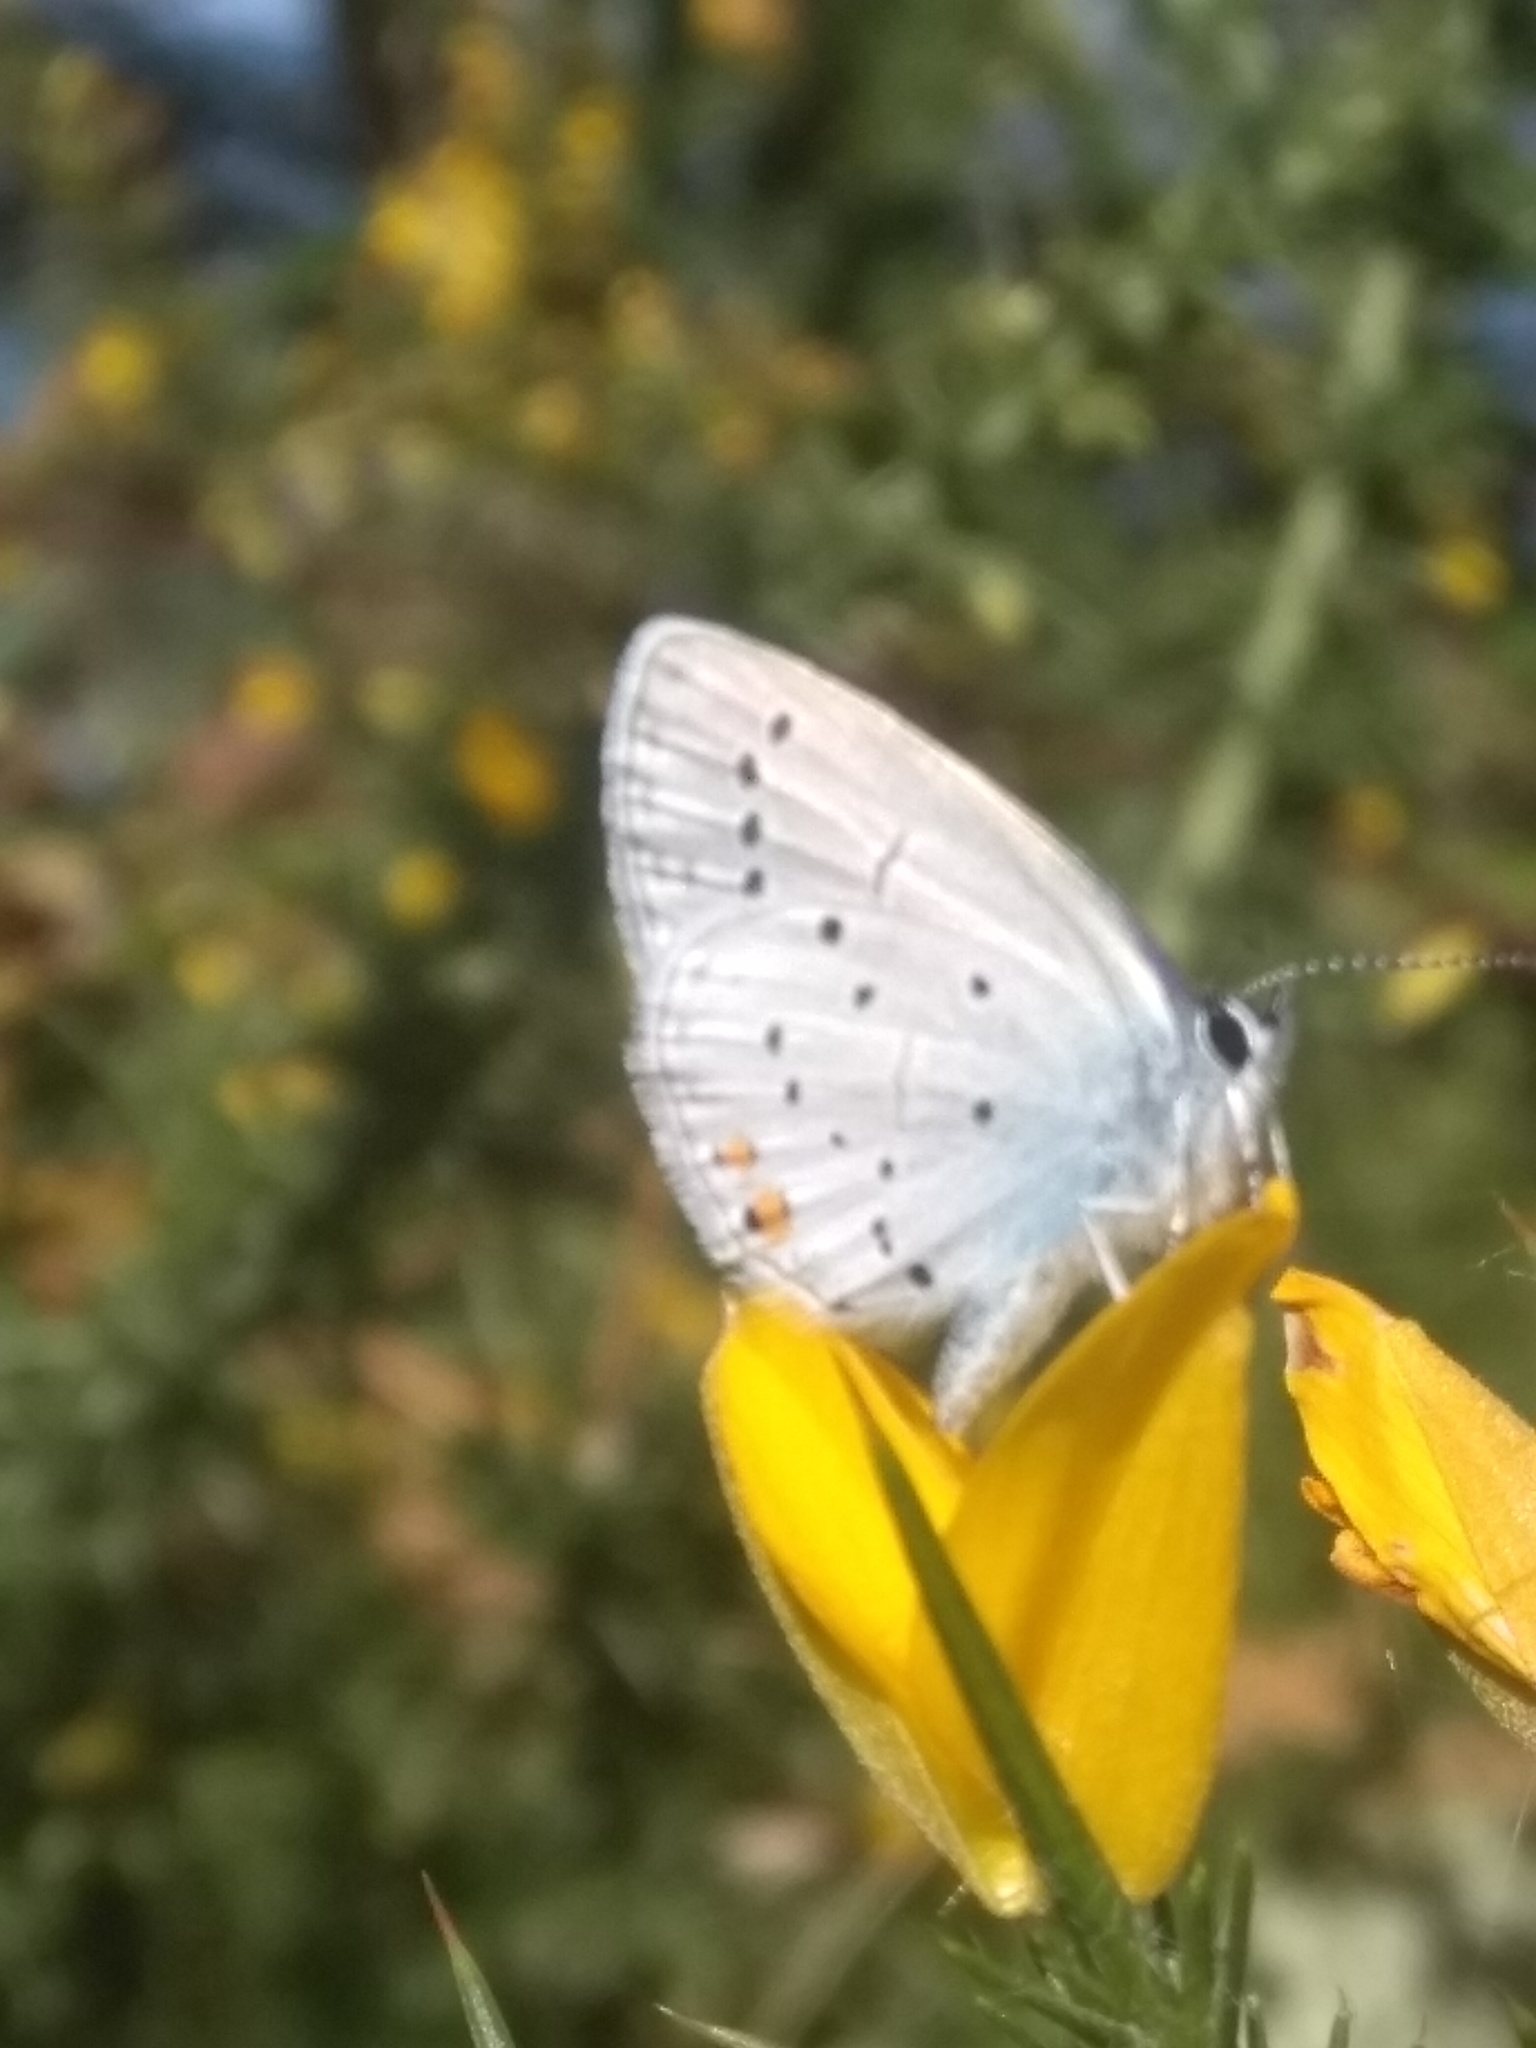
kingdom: Animalia
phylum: Arthropoda
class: Insecta
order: Lepidoptera
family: Lycaenidae
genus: Elkalyce
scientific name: Elkalyce argiades
